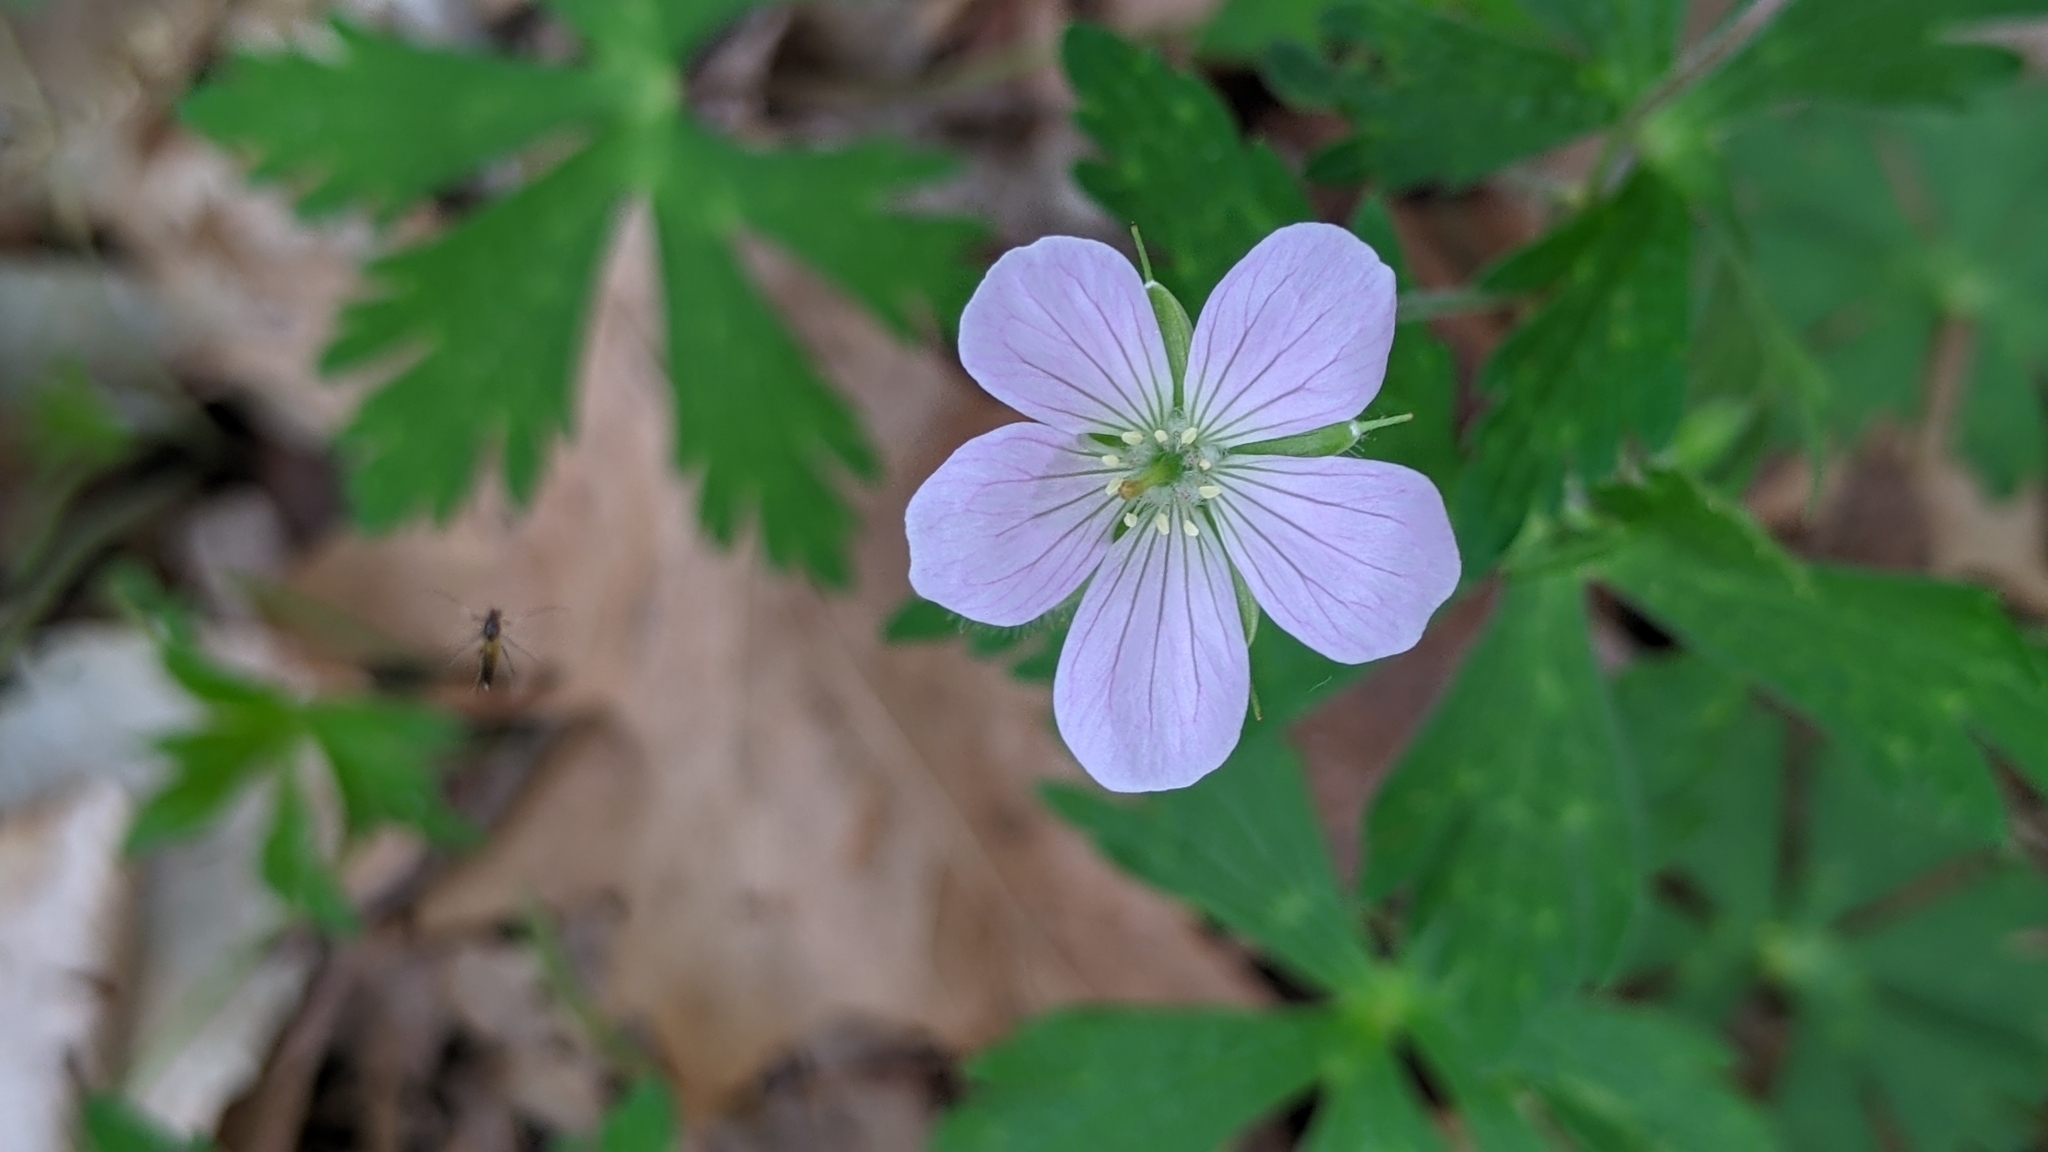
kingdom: Plantae
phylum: Tracheophyta
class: Magnoliopsida
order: Geraniales
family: Geraniaceae
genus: Geranium
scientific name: Geranium maculatum
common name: Spotted geranium
